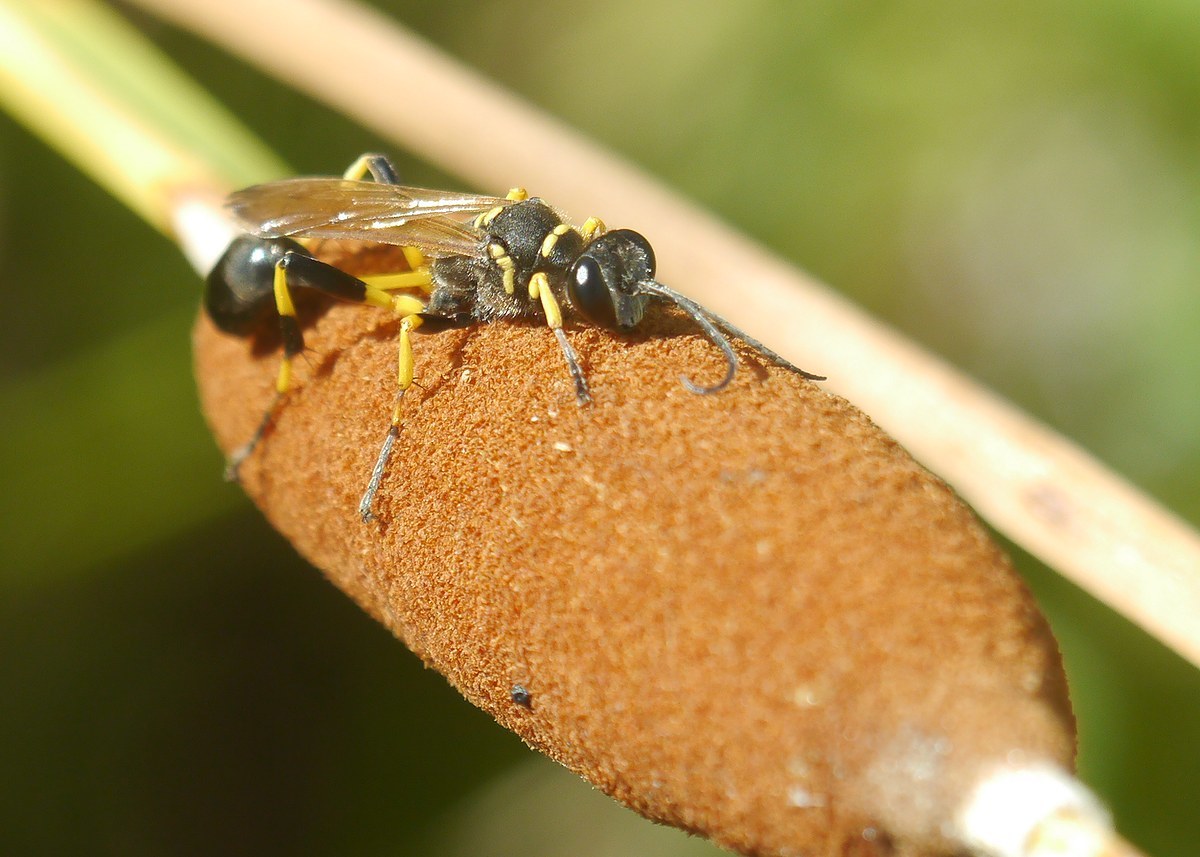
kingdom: Animalia
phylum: Arthropoda
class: Insecta
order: Hymenoptera
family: Sphecidae
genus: Sceliphron
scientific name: Sceliphron madraspatanum
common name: Mud dauber
